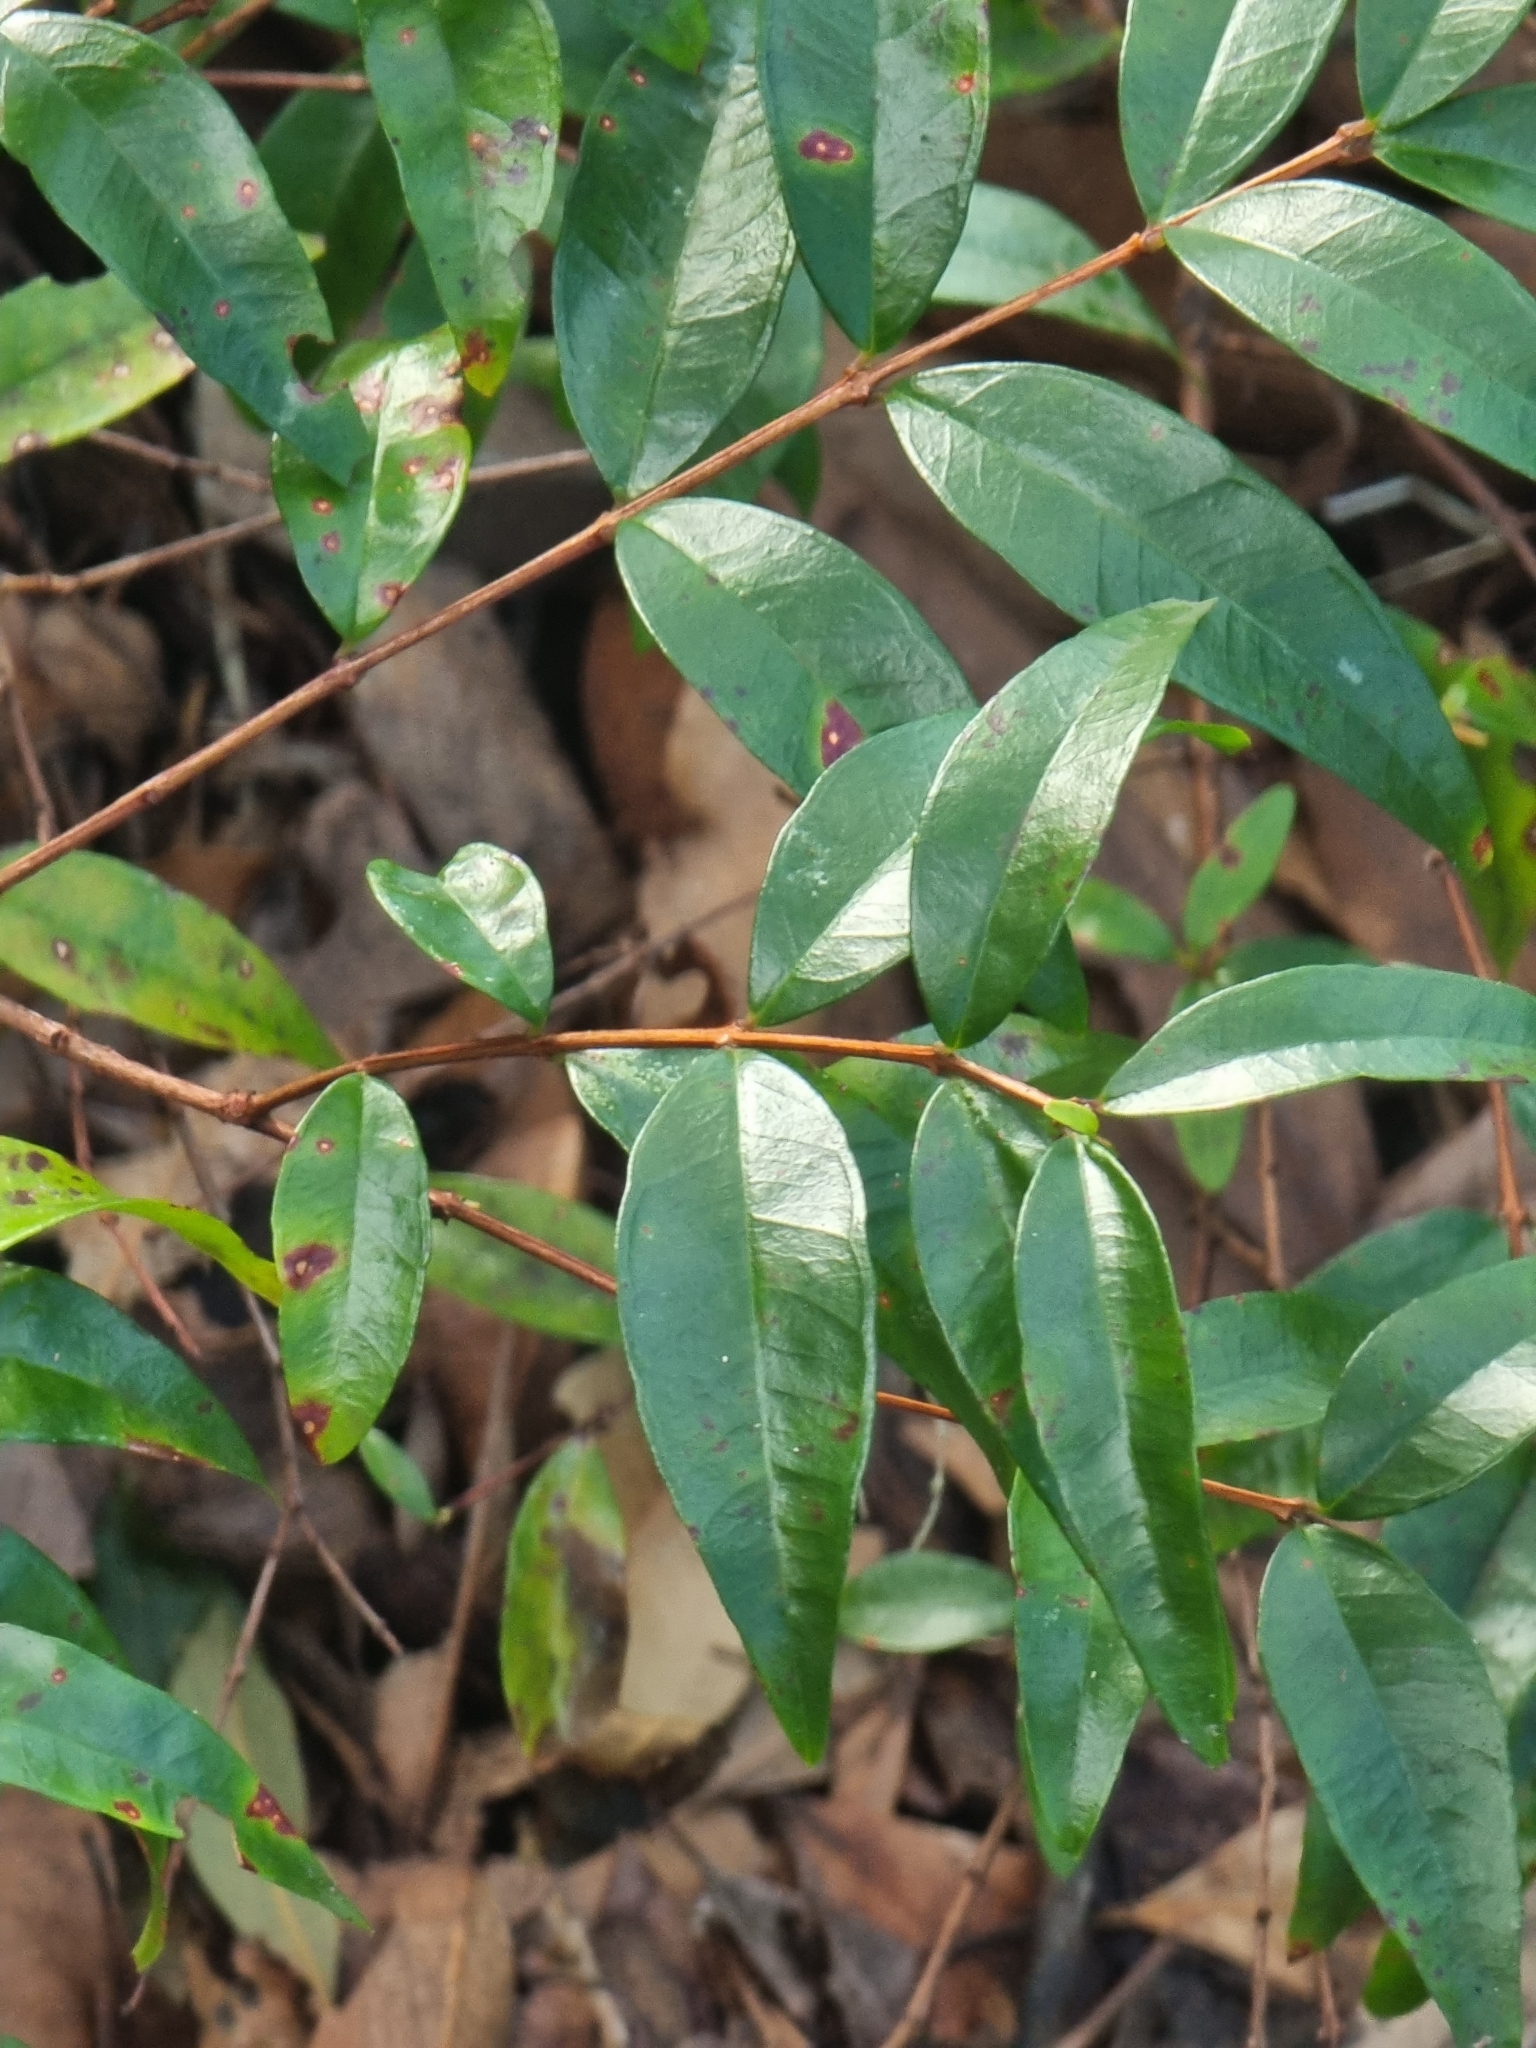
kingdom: Plantae
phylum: Tracheophyta
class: Magnoliopsida
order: Myrtales
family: Myrtaceae
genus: Myrtus
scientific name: Myrtus communis
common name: Myrtle
